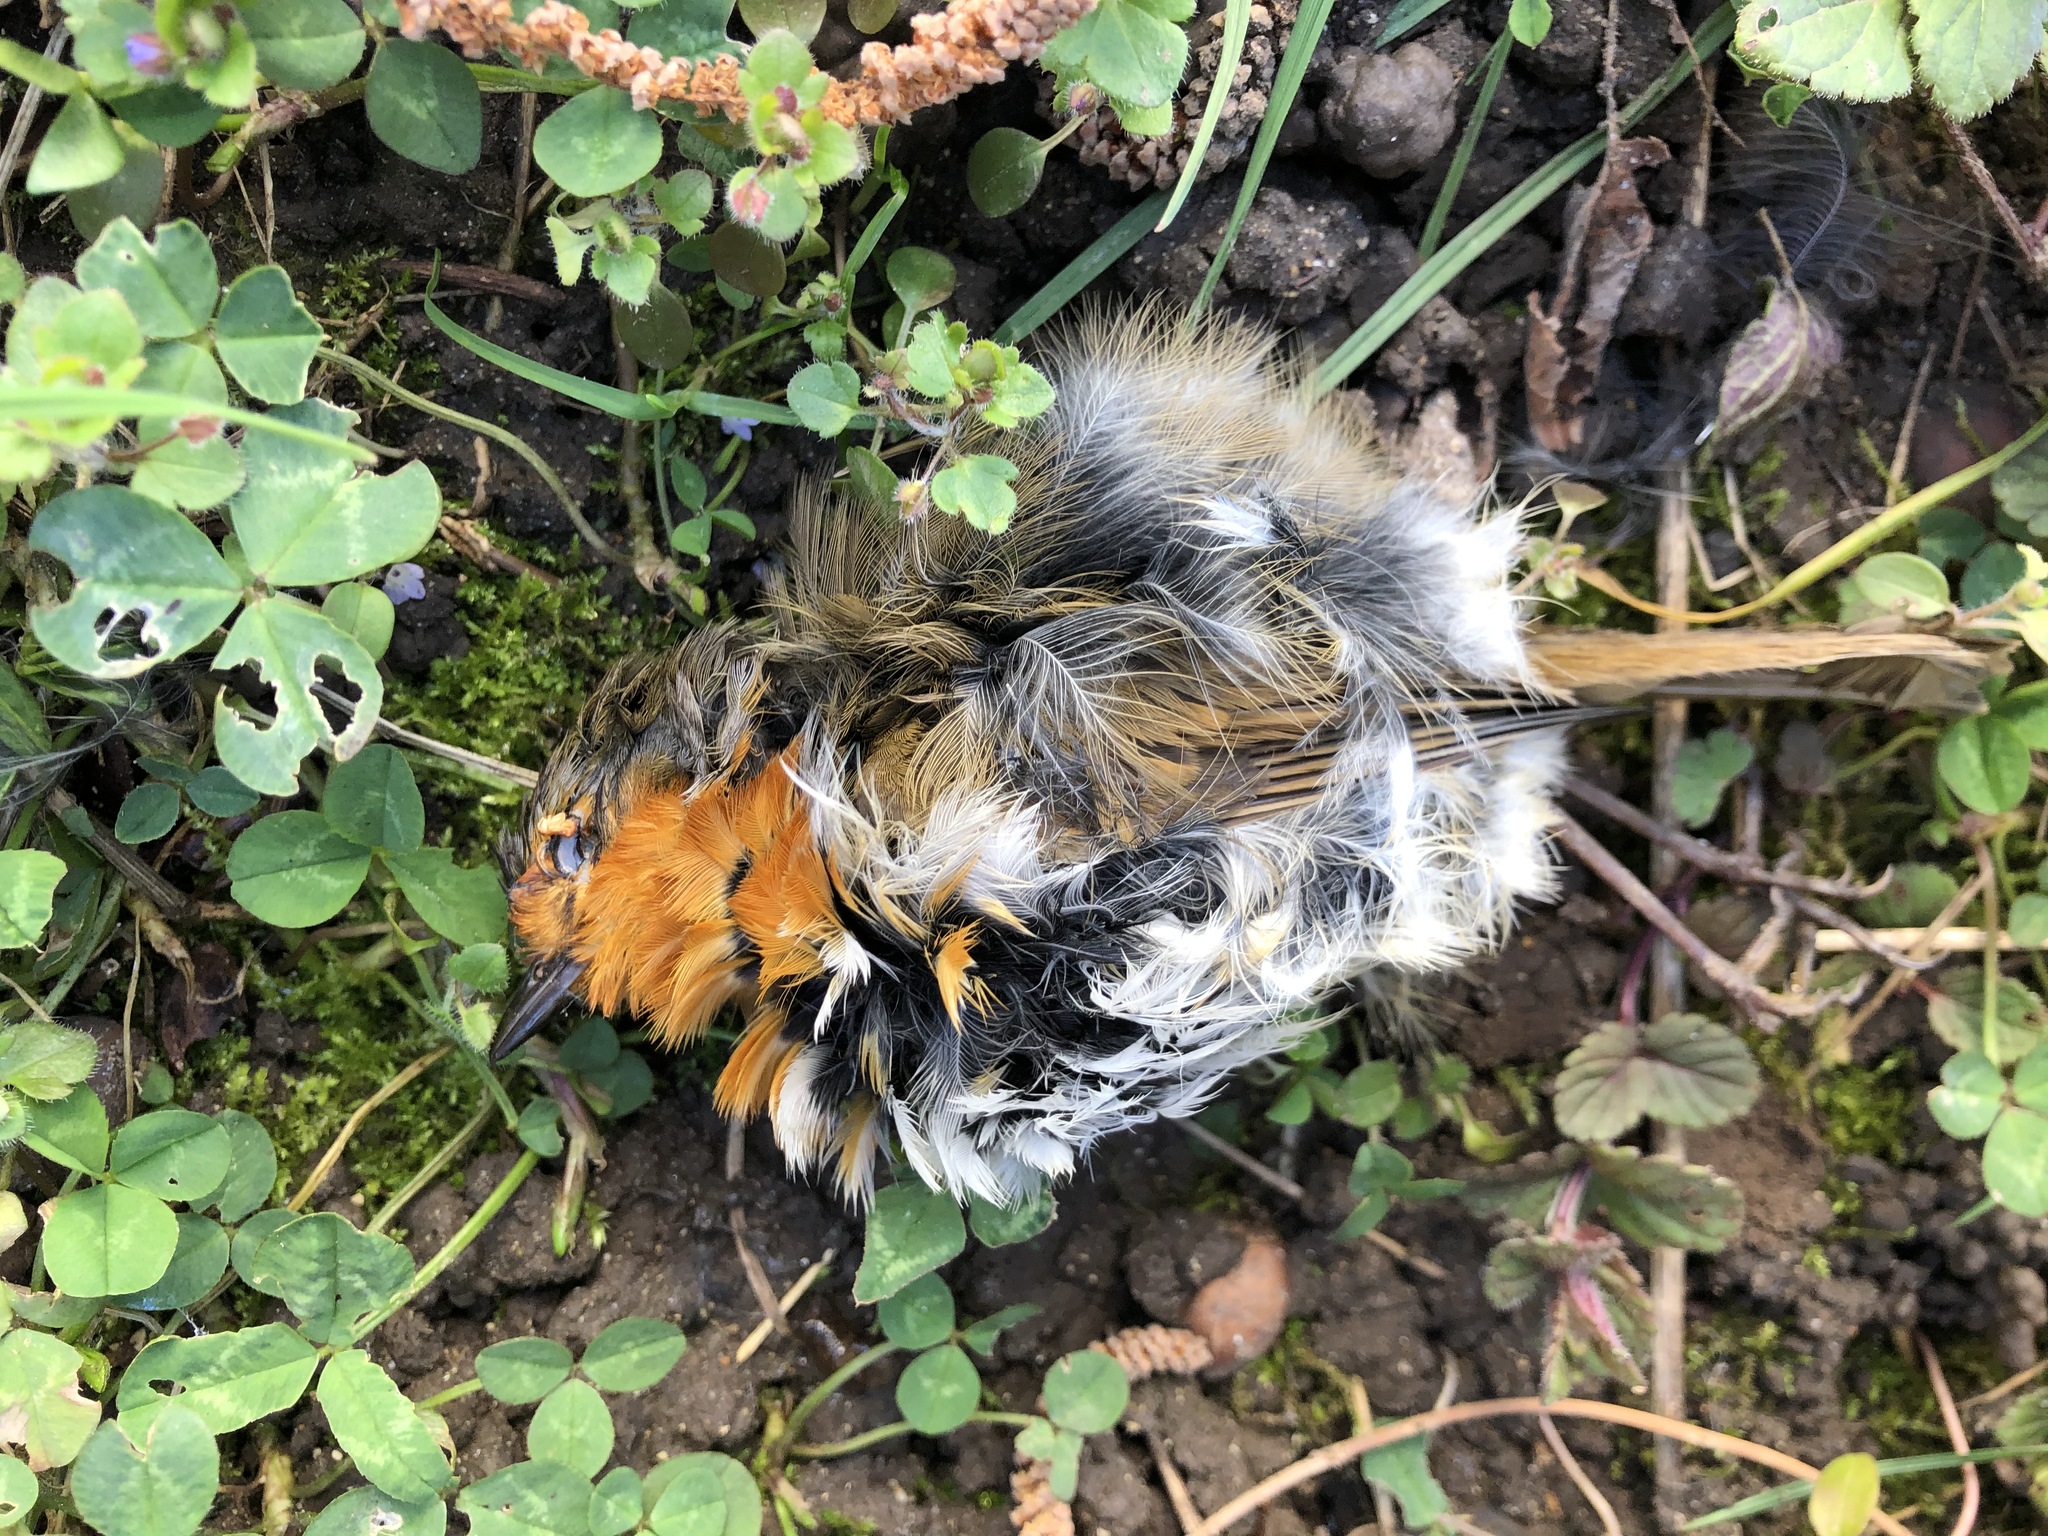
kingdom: Animalia
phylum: Chordata
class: Aves
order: Passeriformes
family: Muscicapidae
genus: Erithacus
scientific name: Erithacus rubecula
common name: European robin
